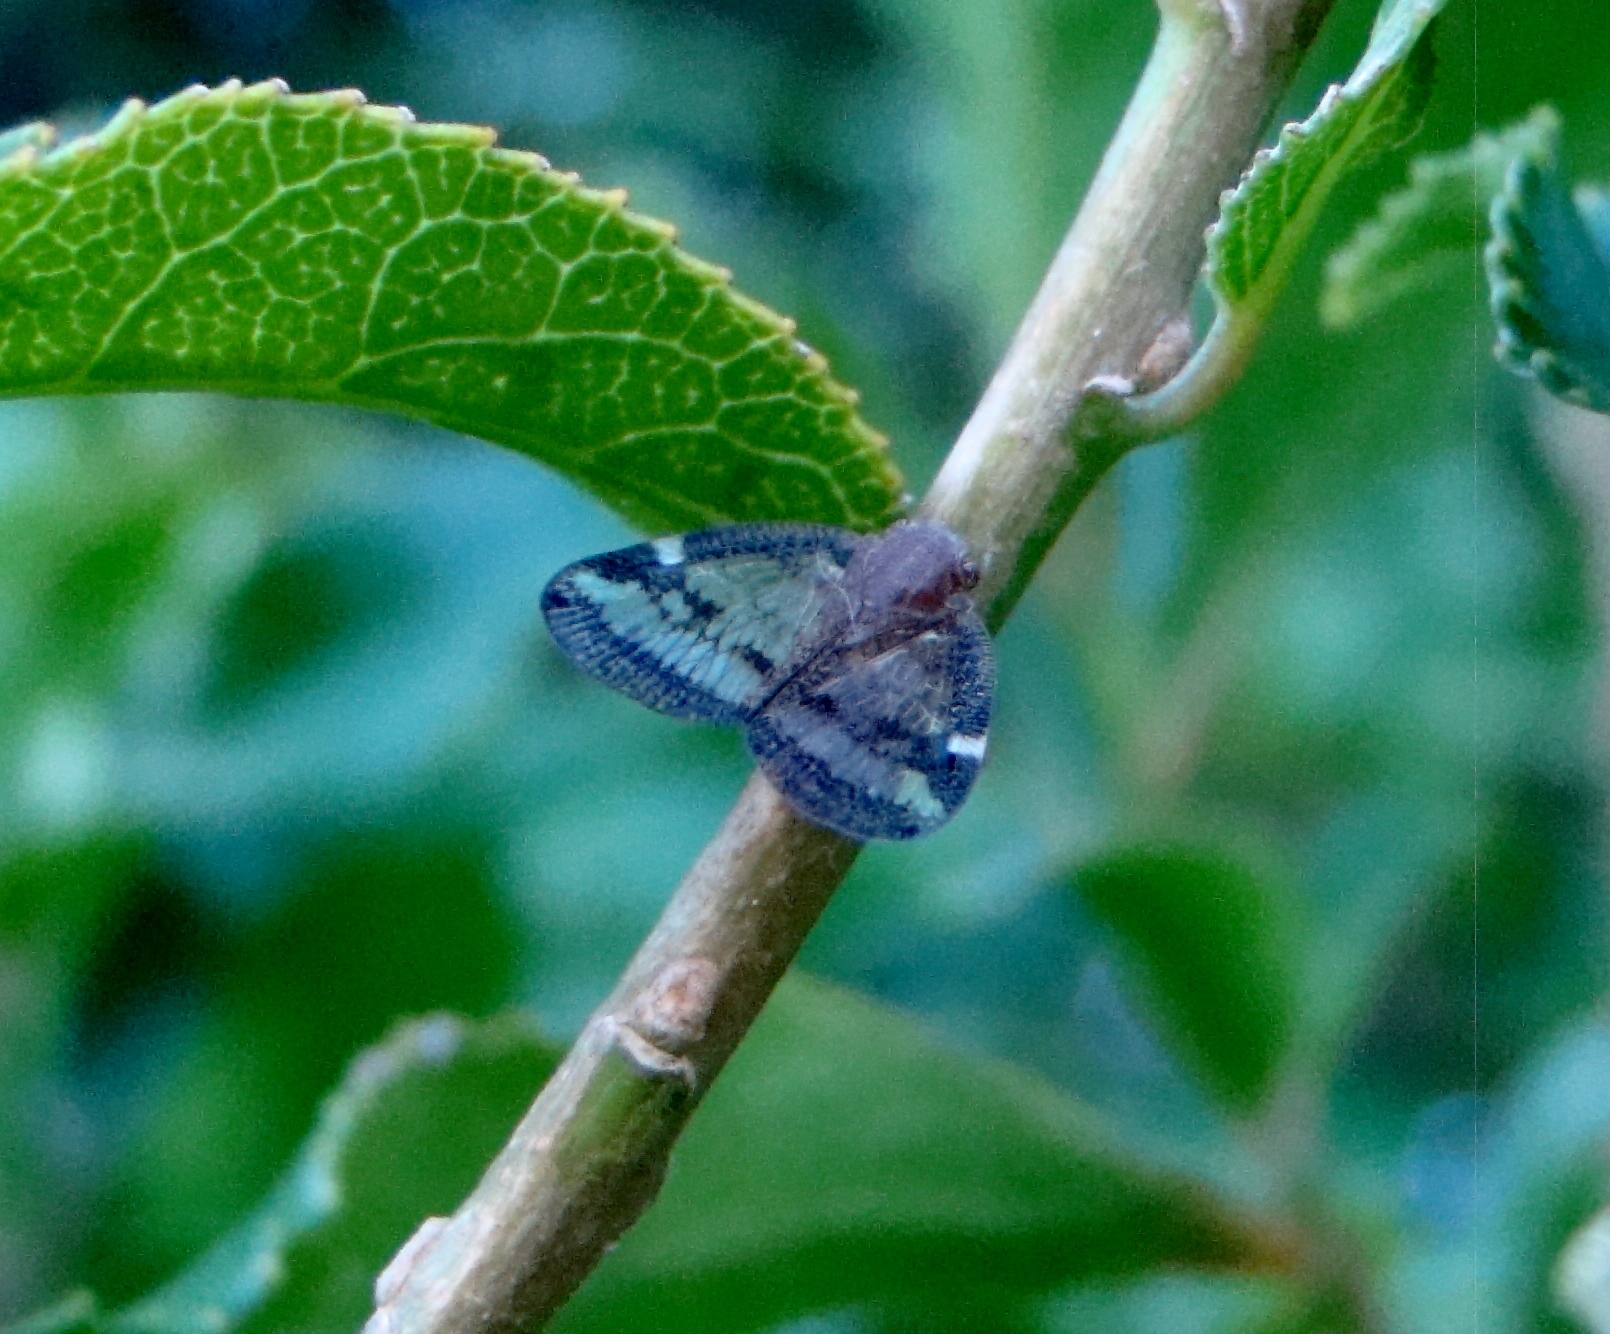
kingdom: Animalia
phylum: Arthropoda
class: Insecta
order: Hemiptera
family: Ricaniidae
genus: Scolypopa
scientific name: Scolypopa australis
